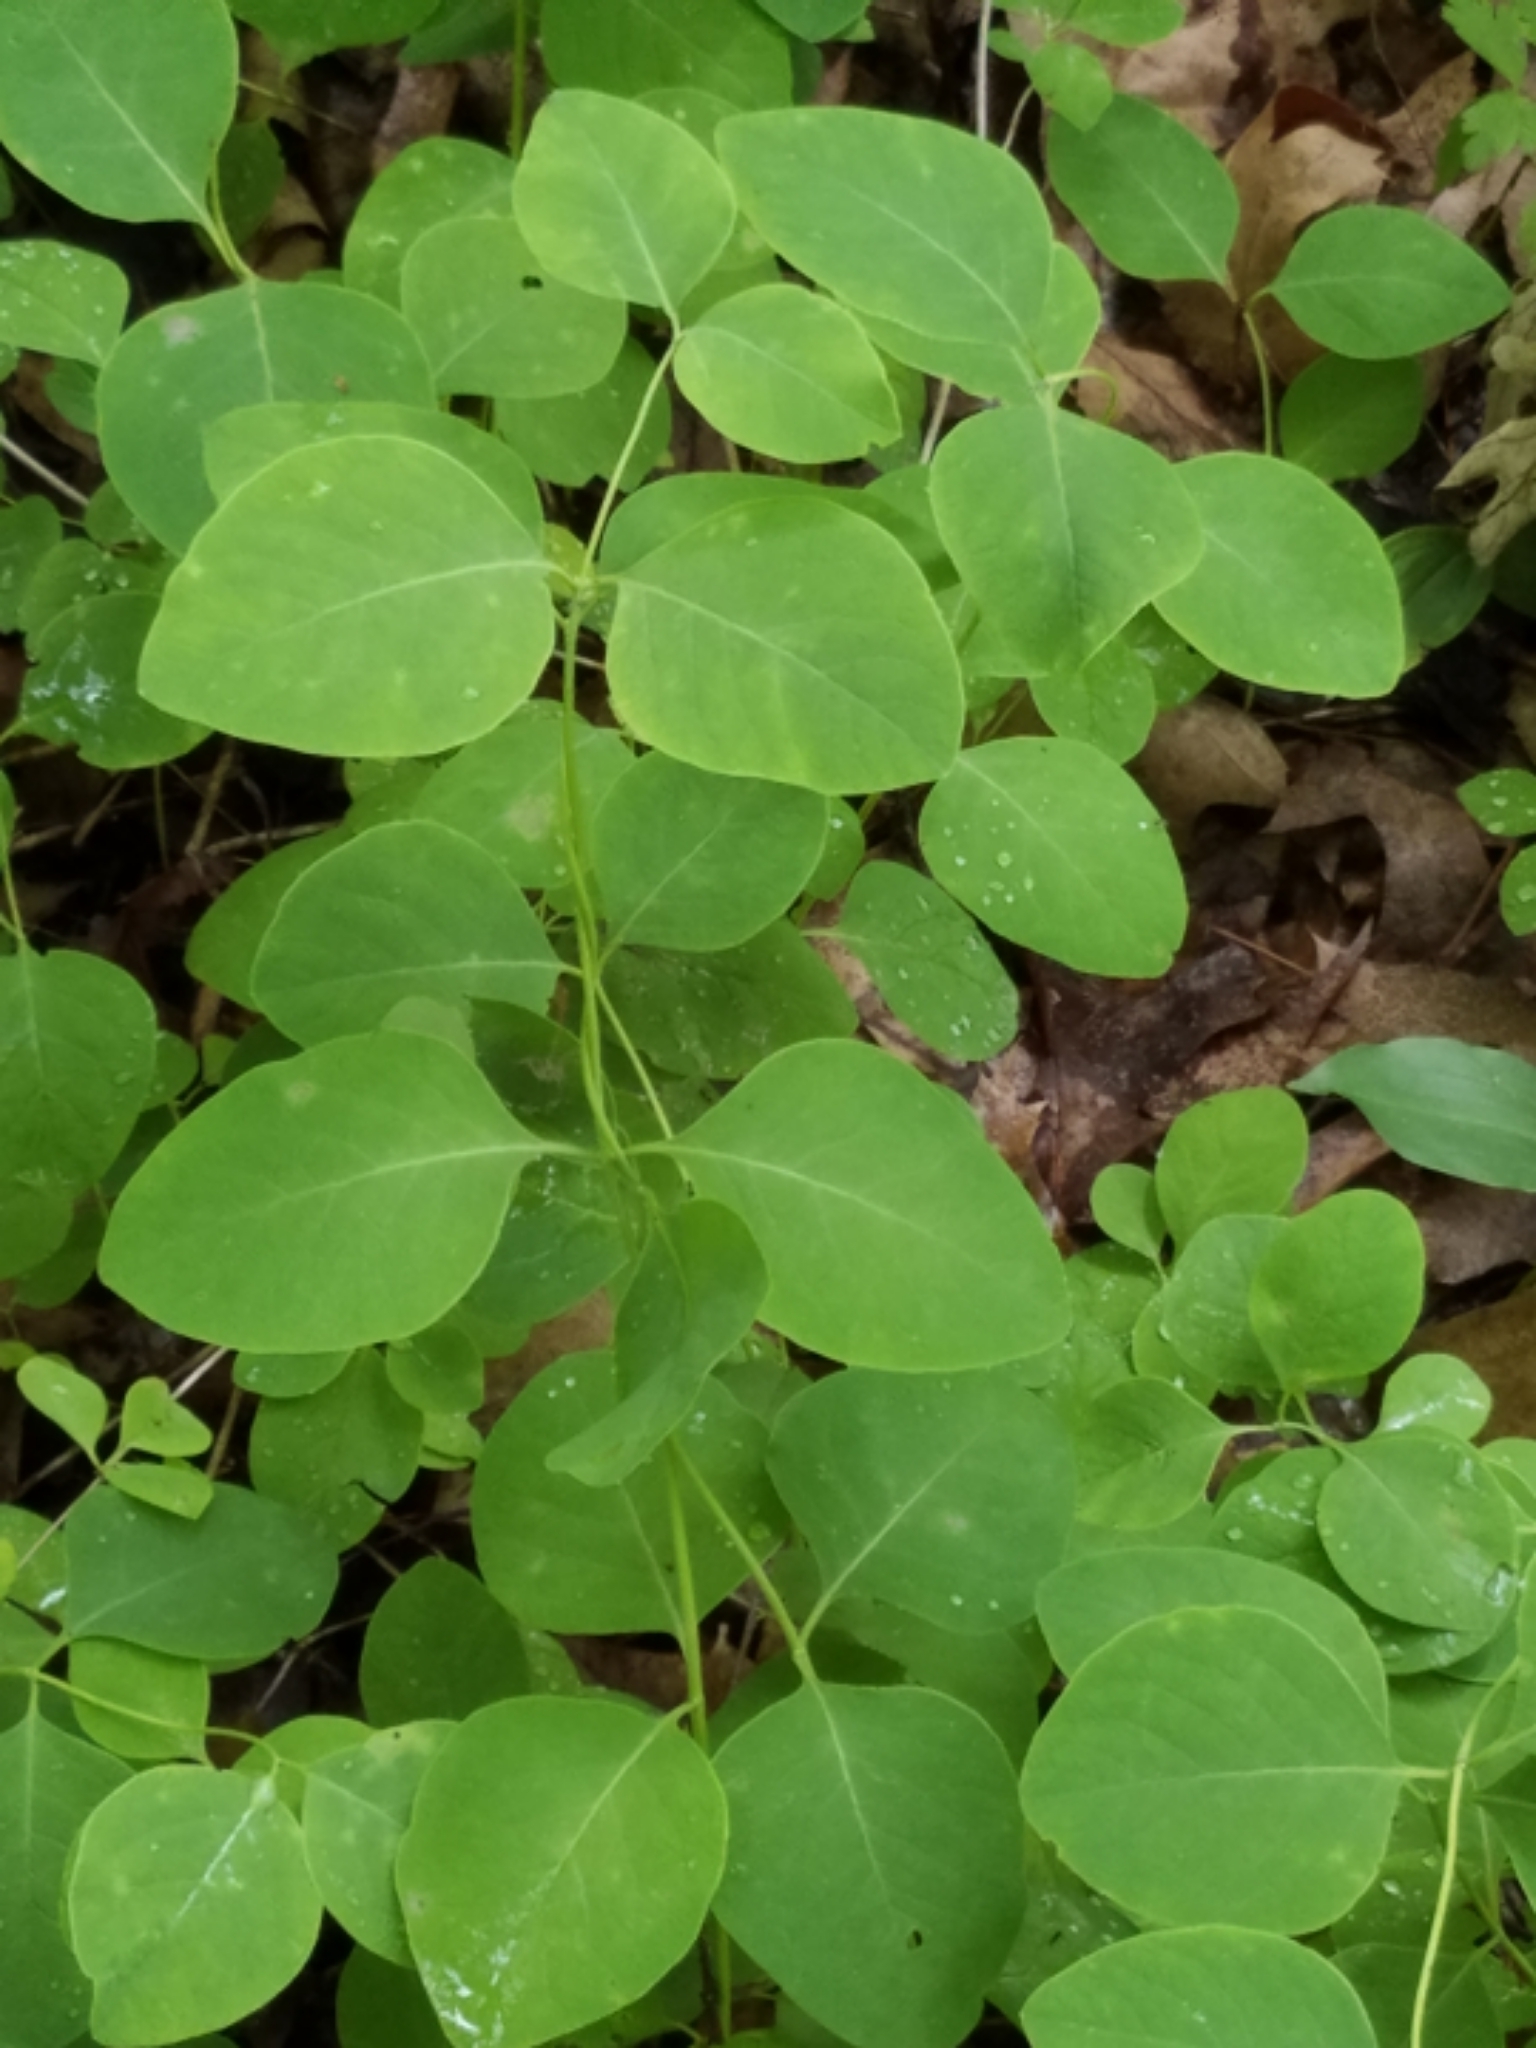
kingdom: Plantae
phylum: Tracheophyta
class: Magnoliopsida
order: Dipsacales
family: Caprifoliaceae
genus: Lonicera
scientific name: Lonicera reticulata
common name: Grape honeysuckle
